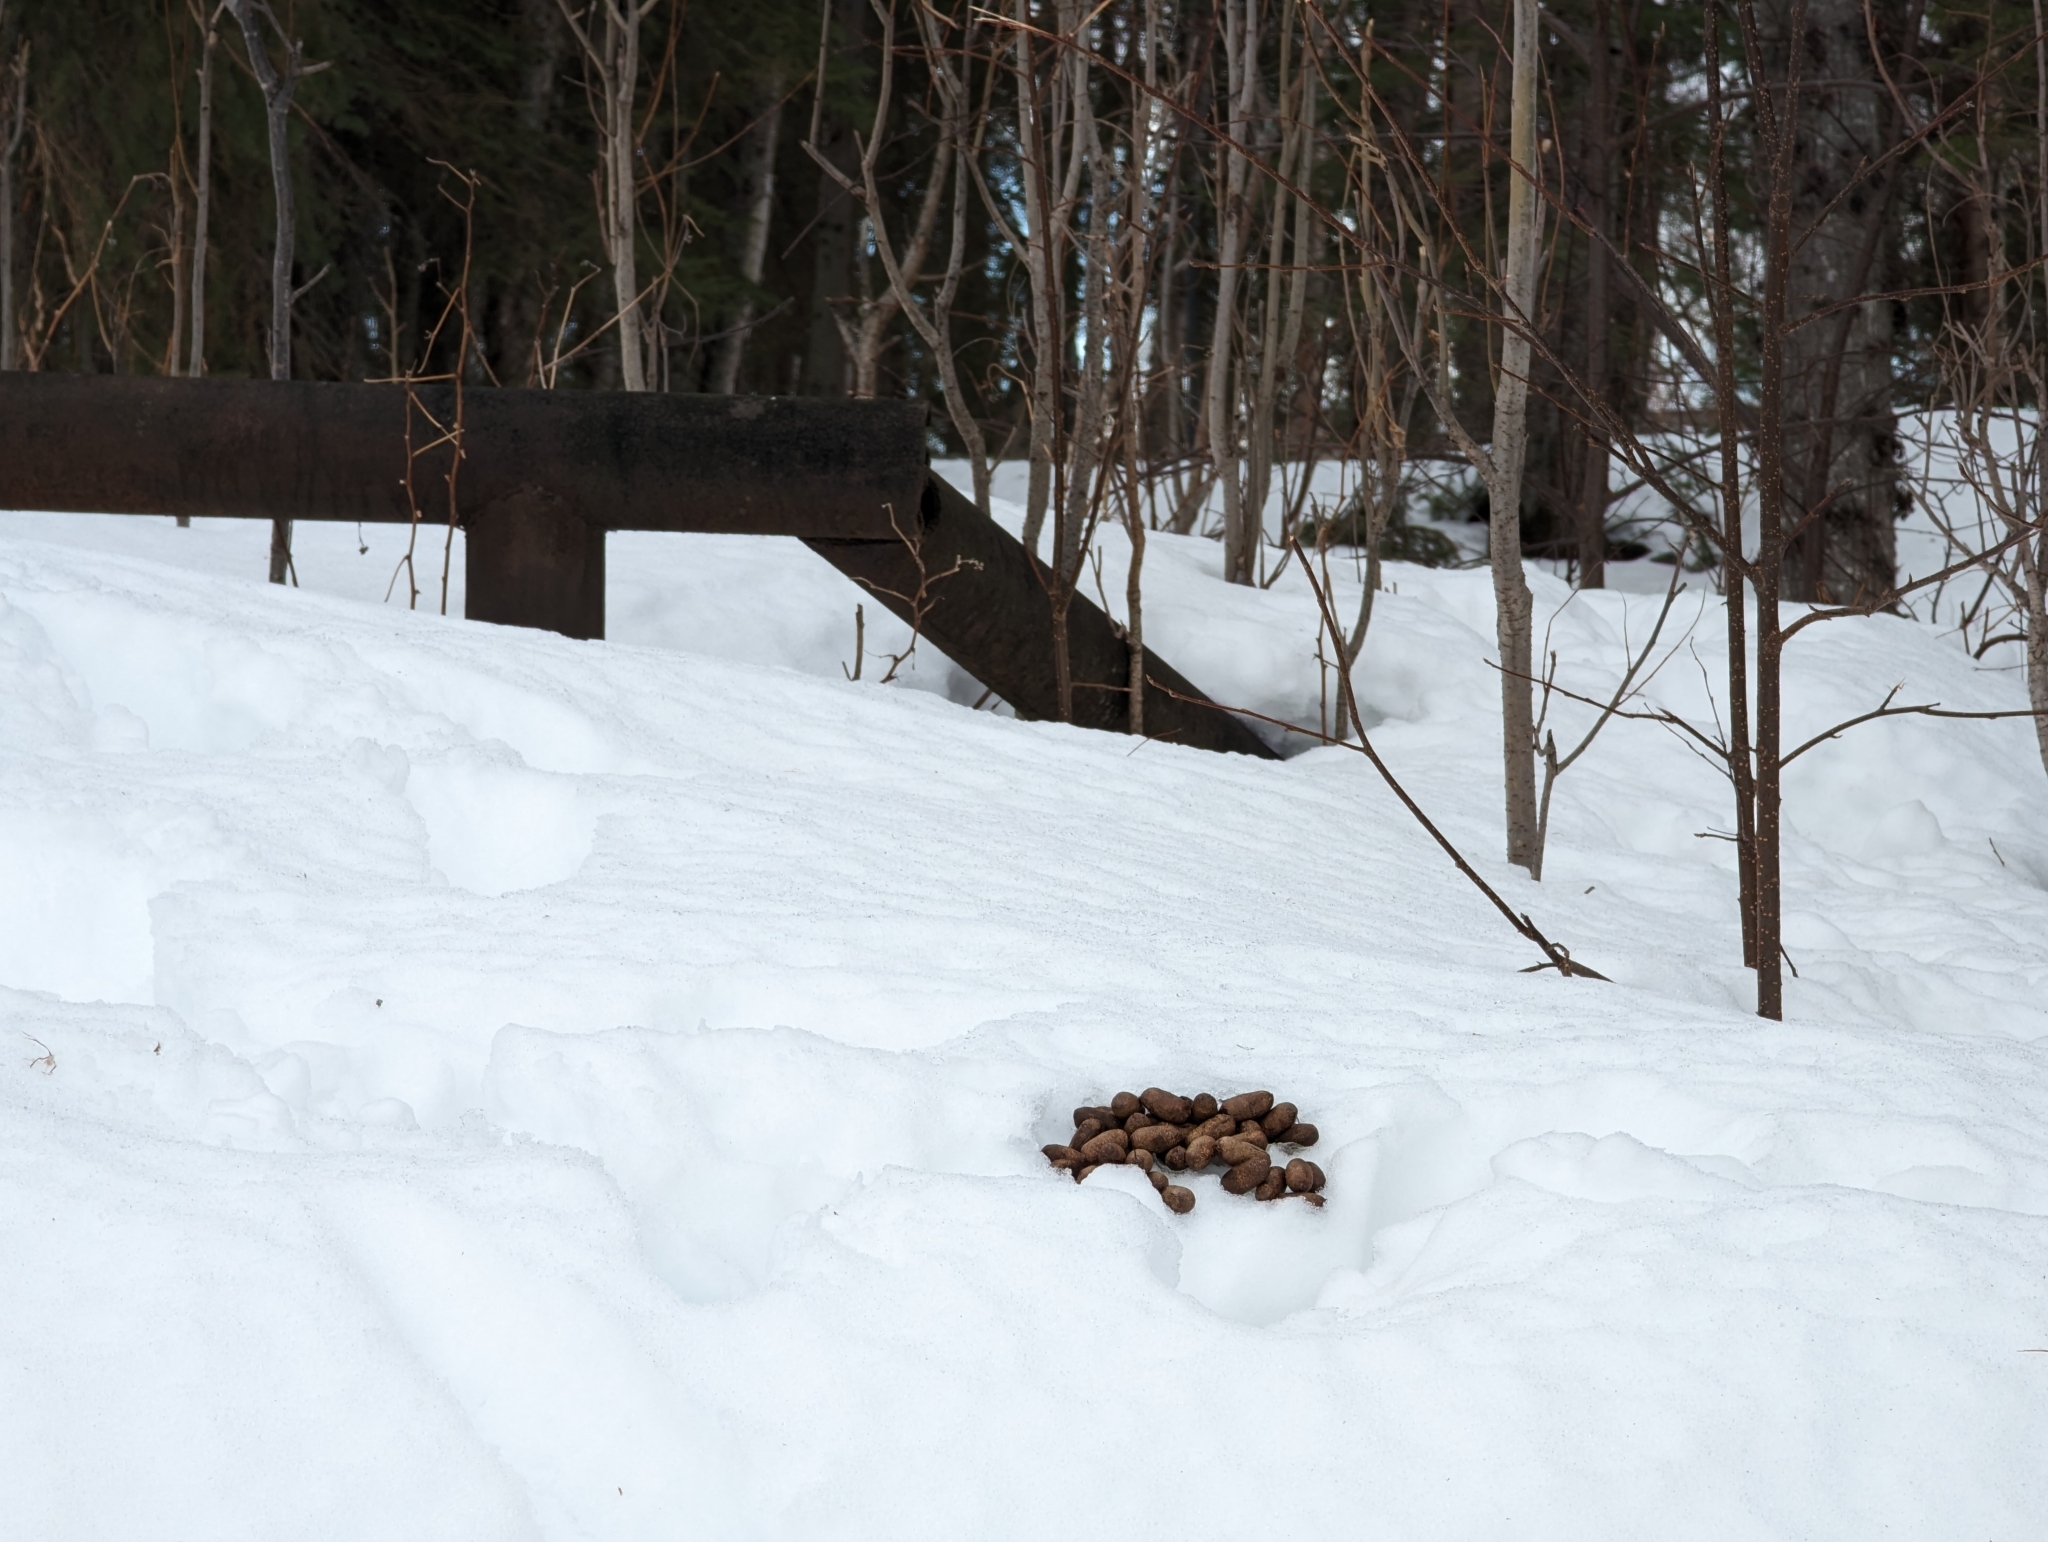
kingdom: Animalia
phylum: Chordata
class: Mammalia
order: Artiodactyla
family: Cervidae
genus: Alces
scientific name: Alces alces
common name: Moose
